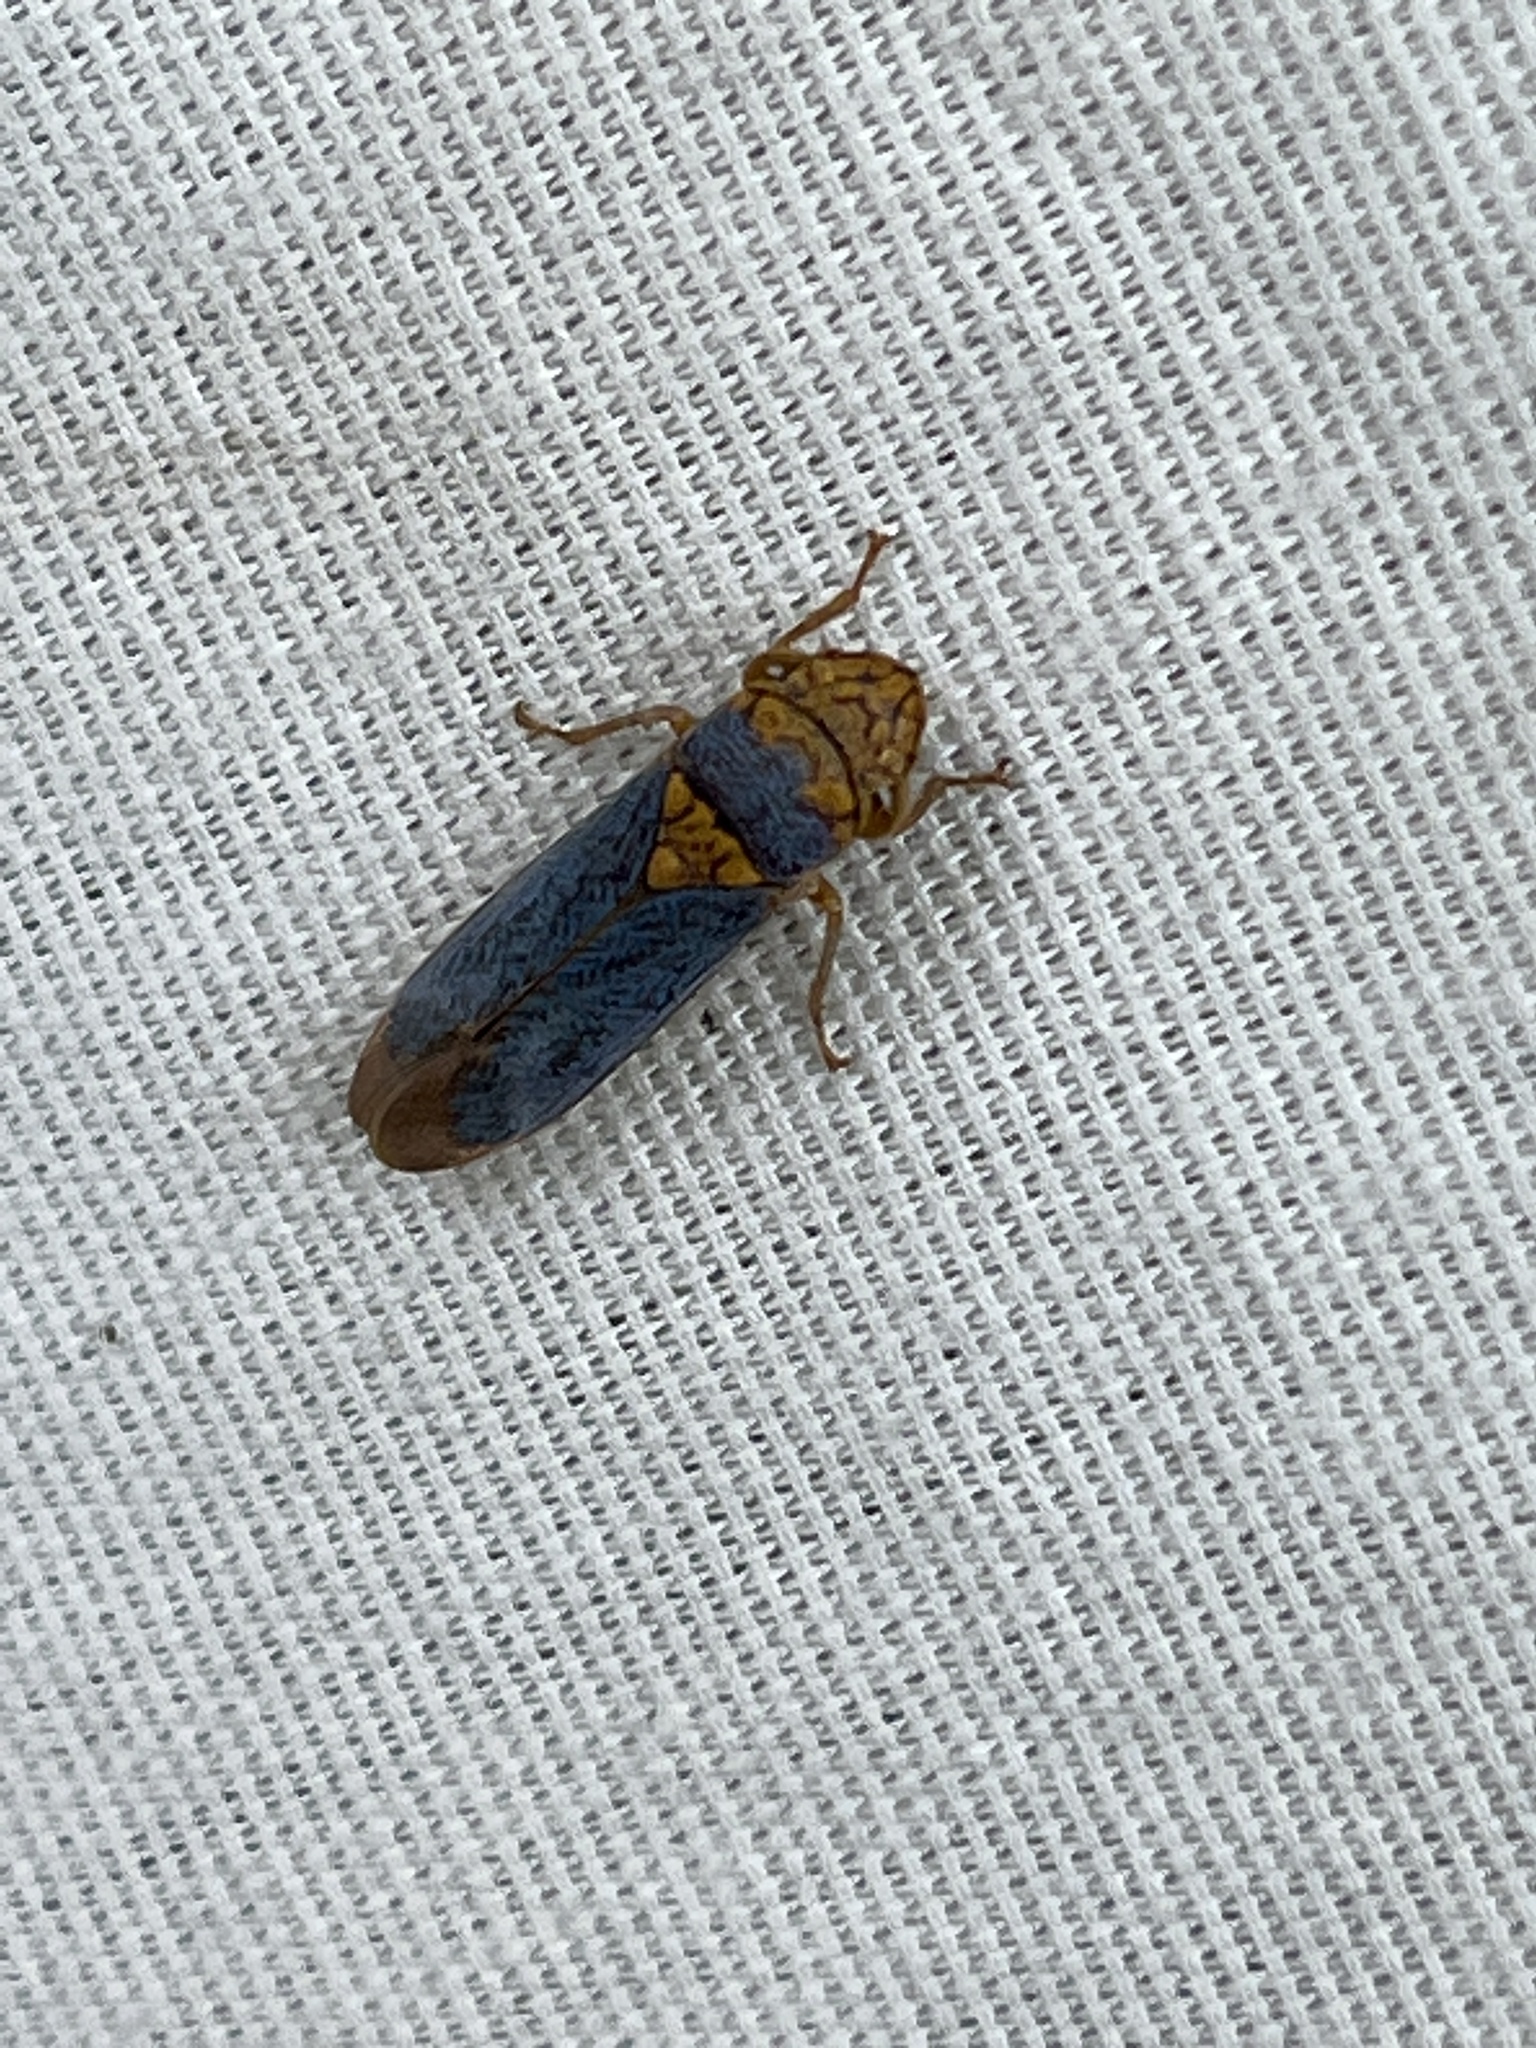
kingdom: Animalia
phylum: Arthropoda
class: Insecta
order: Hemiptera
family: Cicadellidae
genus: Oncometopia
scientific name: Oncometopia orbona
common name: Broad-headed sharpshooter
